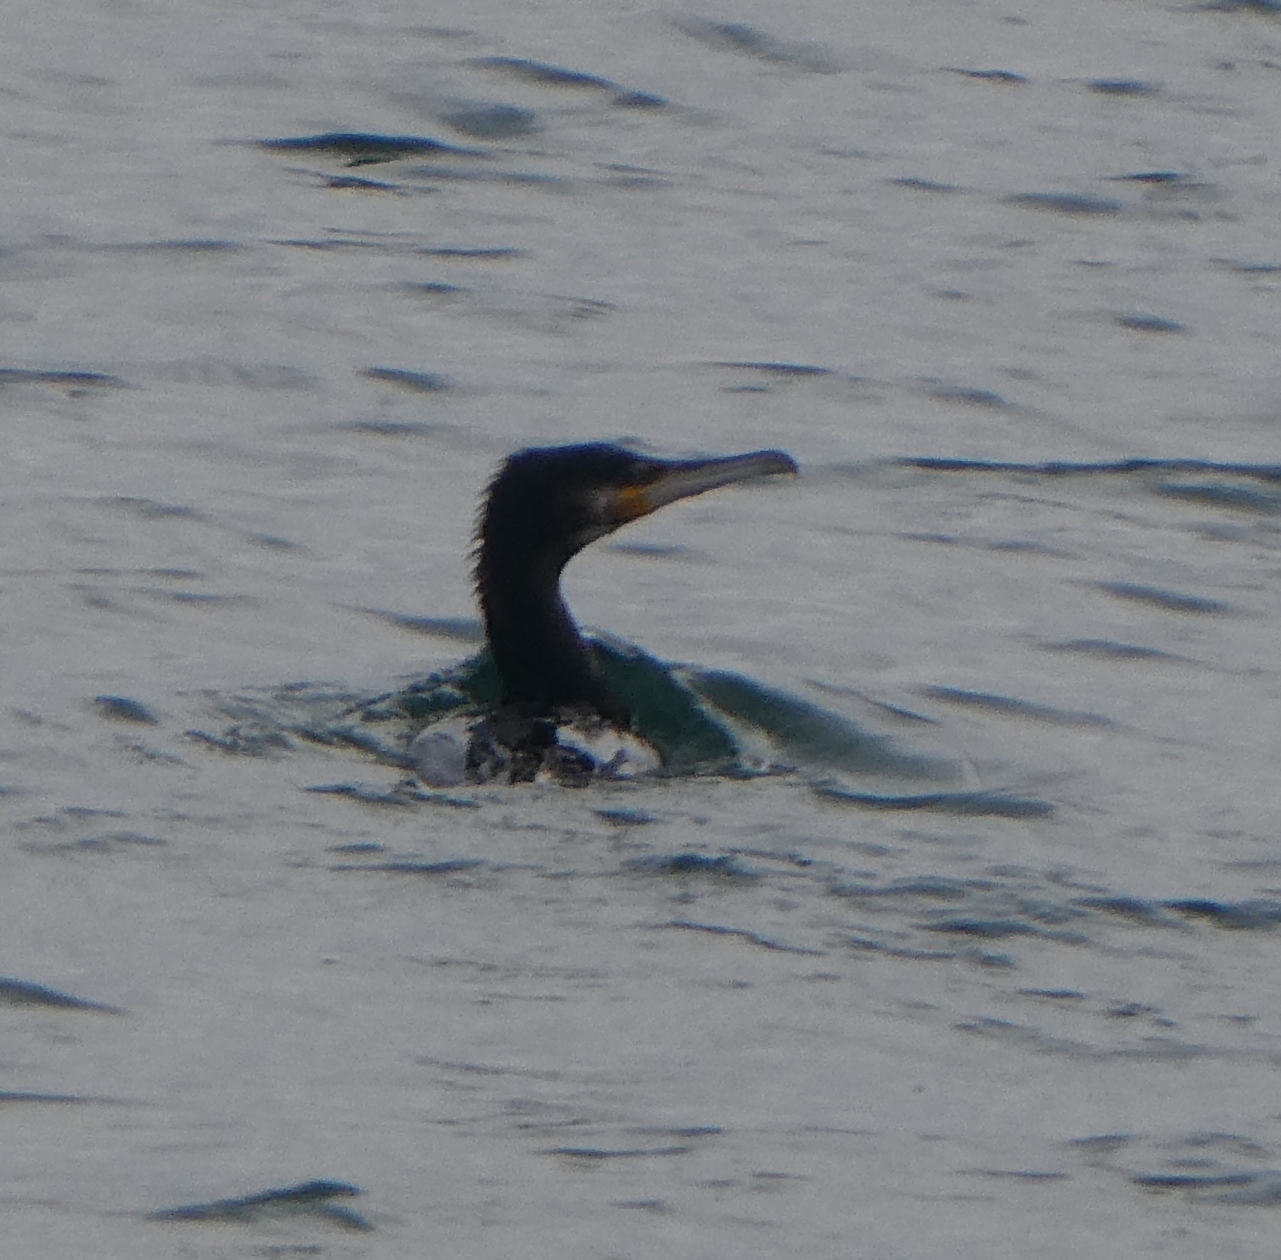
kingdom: Animalia
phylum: Chordata
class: Aves
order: Suliformes
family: Phalacrocoracidae
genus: Phalacrocorax
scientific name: Phalacrocorax carbo
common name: Great cormorant
